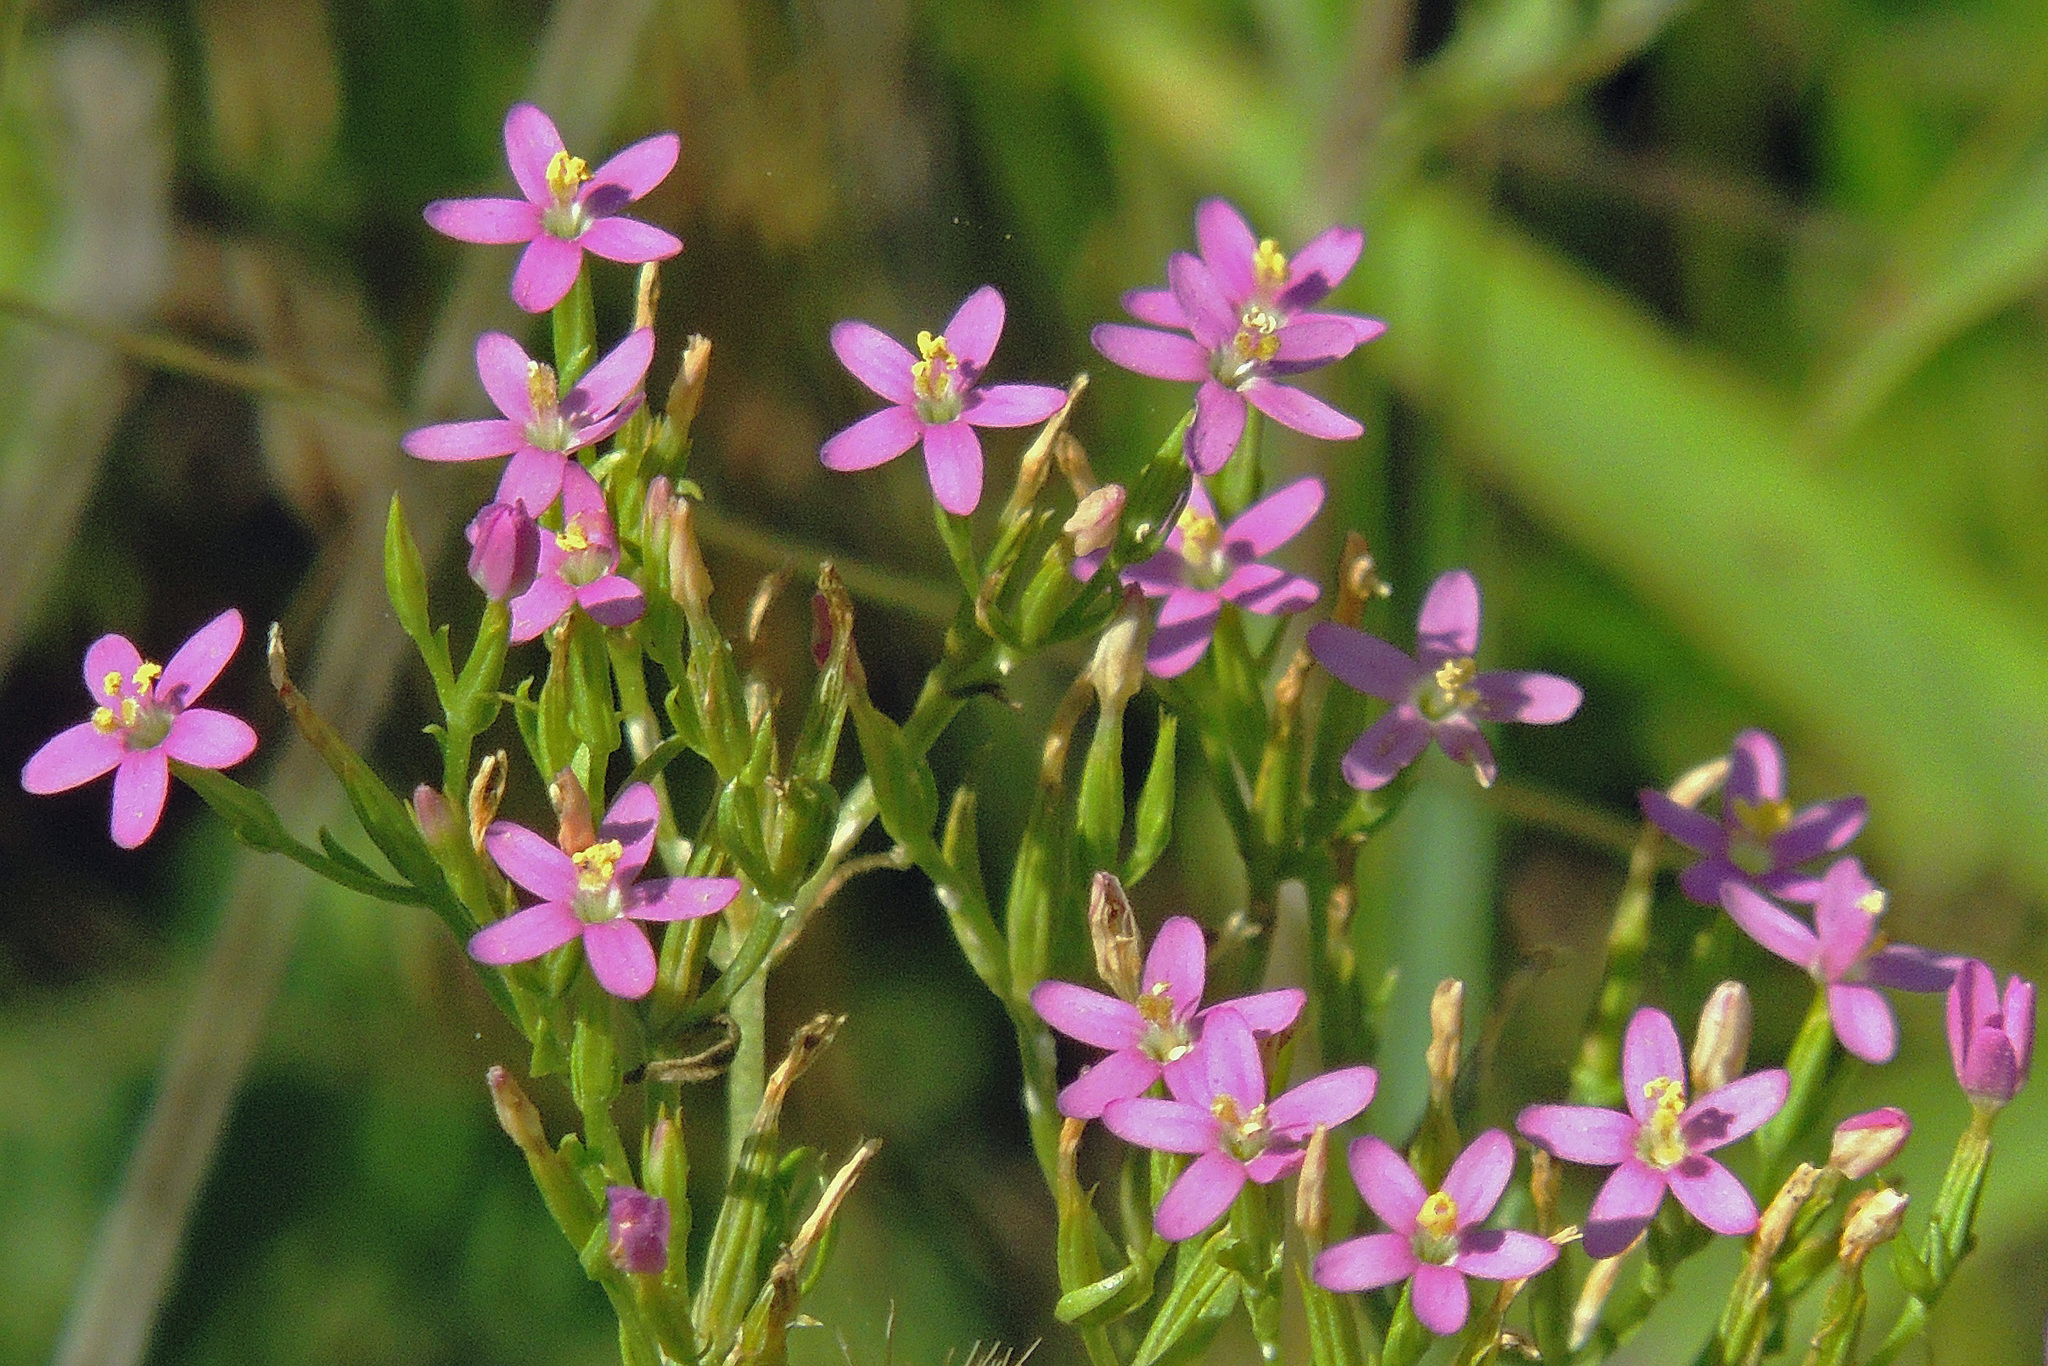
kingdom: Plantae
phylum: Tracheophyta
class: Magnoliopsida
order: Gentianales
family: Gentianaceae
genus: Centaurium
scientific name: Centaurium pulchellum
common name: Lesser centaury
